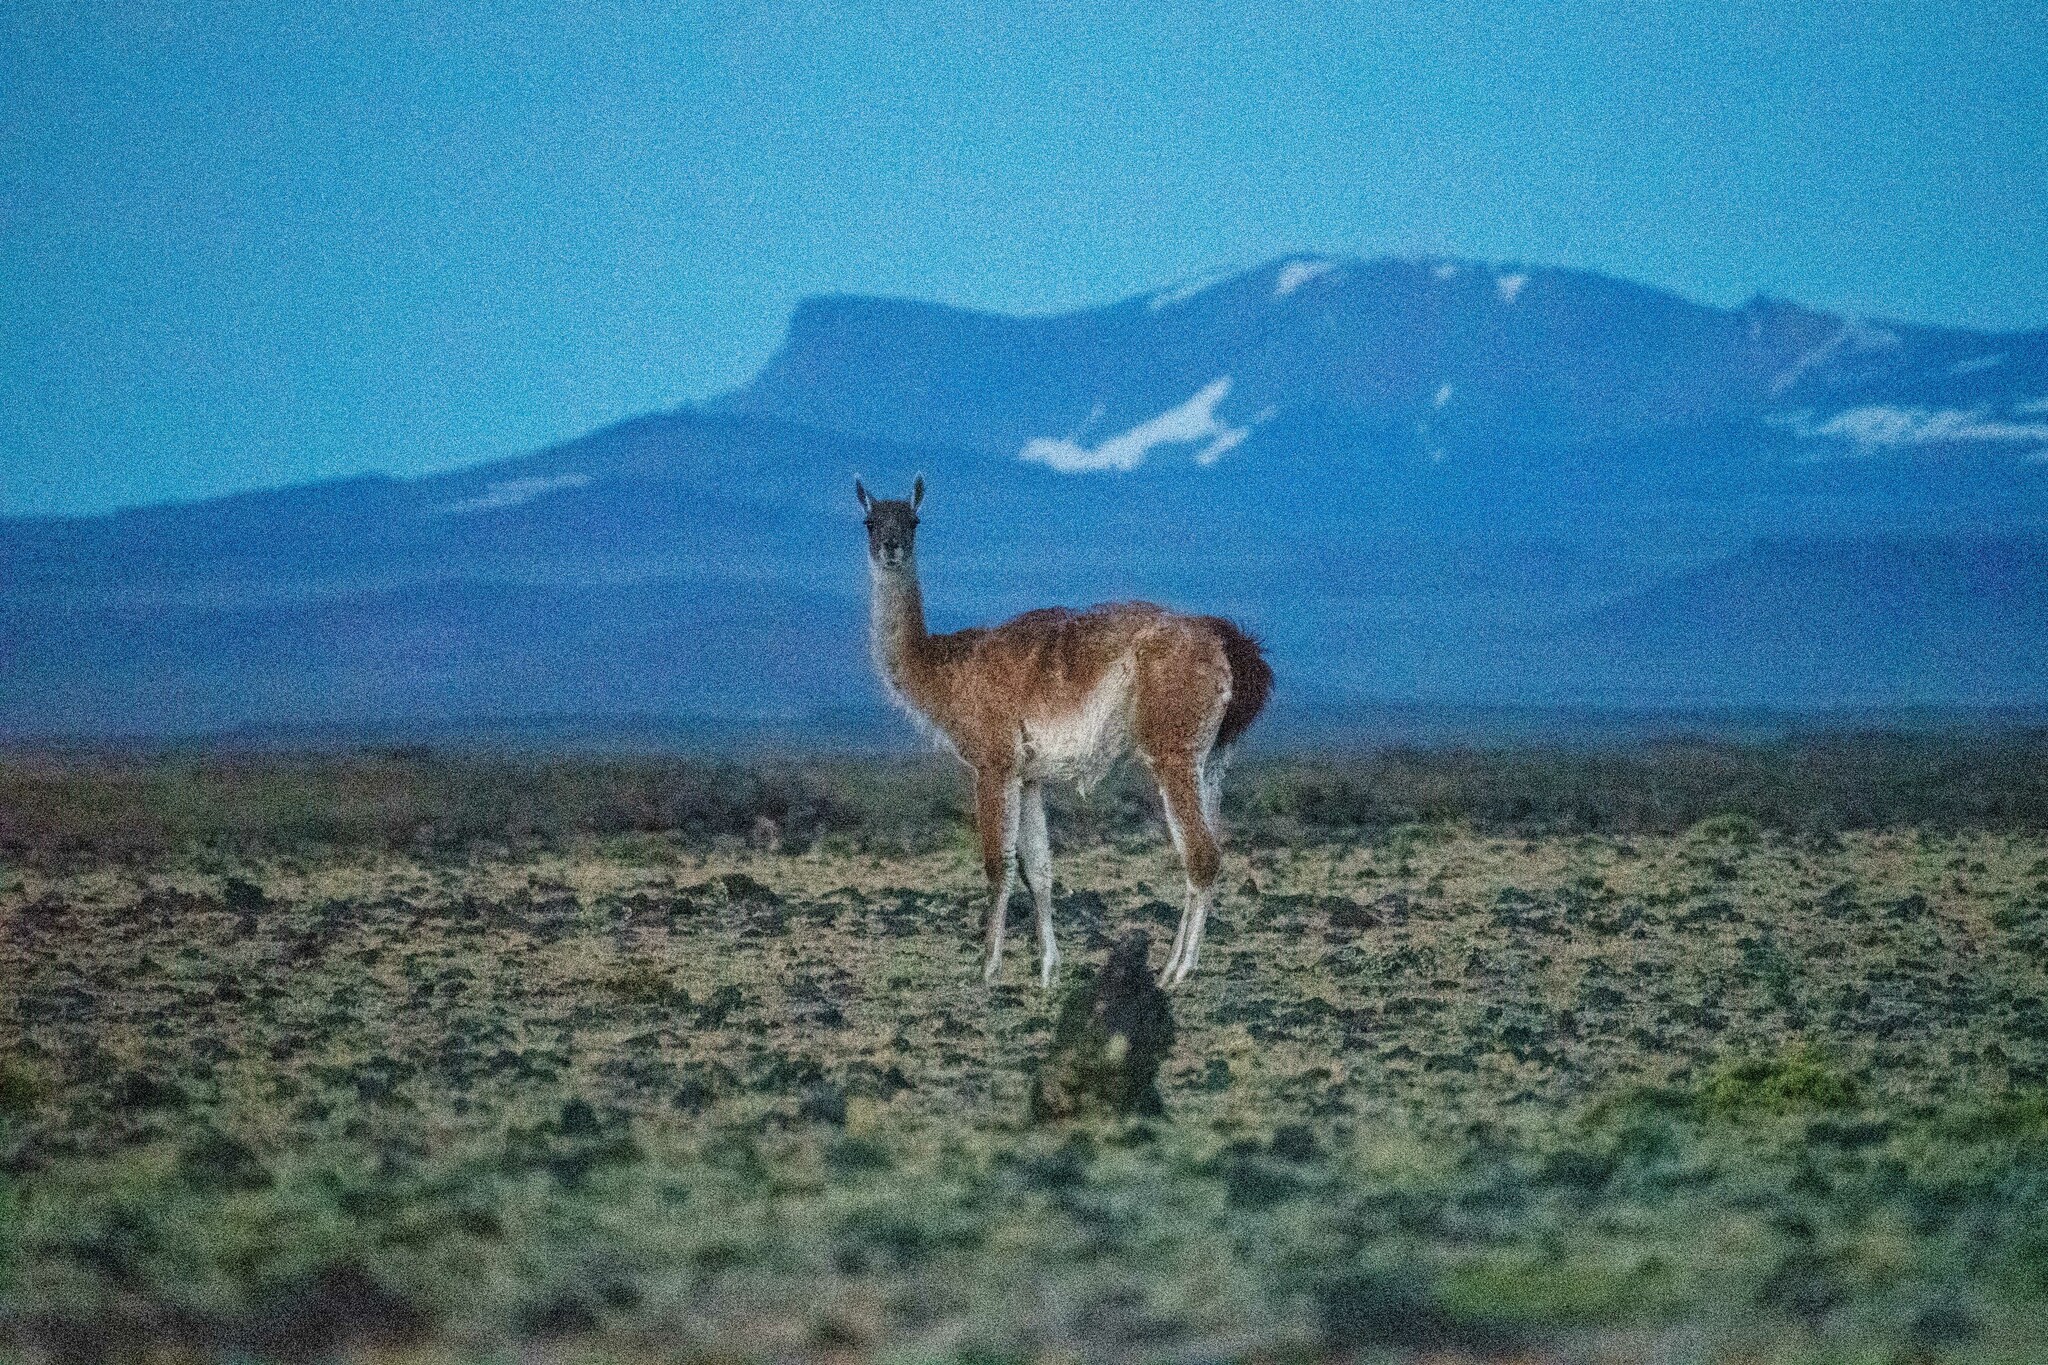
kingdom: Animalia
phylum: Chordata
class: Mammalia
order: Artiodactyla
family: Camelidae
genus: Lama
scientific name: Lama glama
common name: Llama
